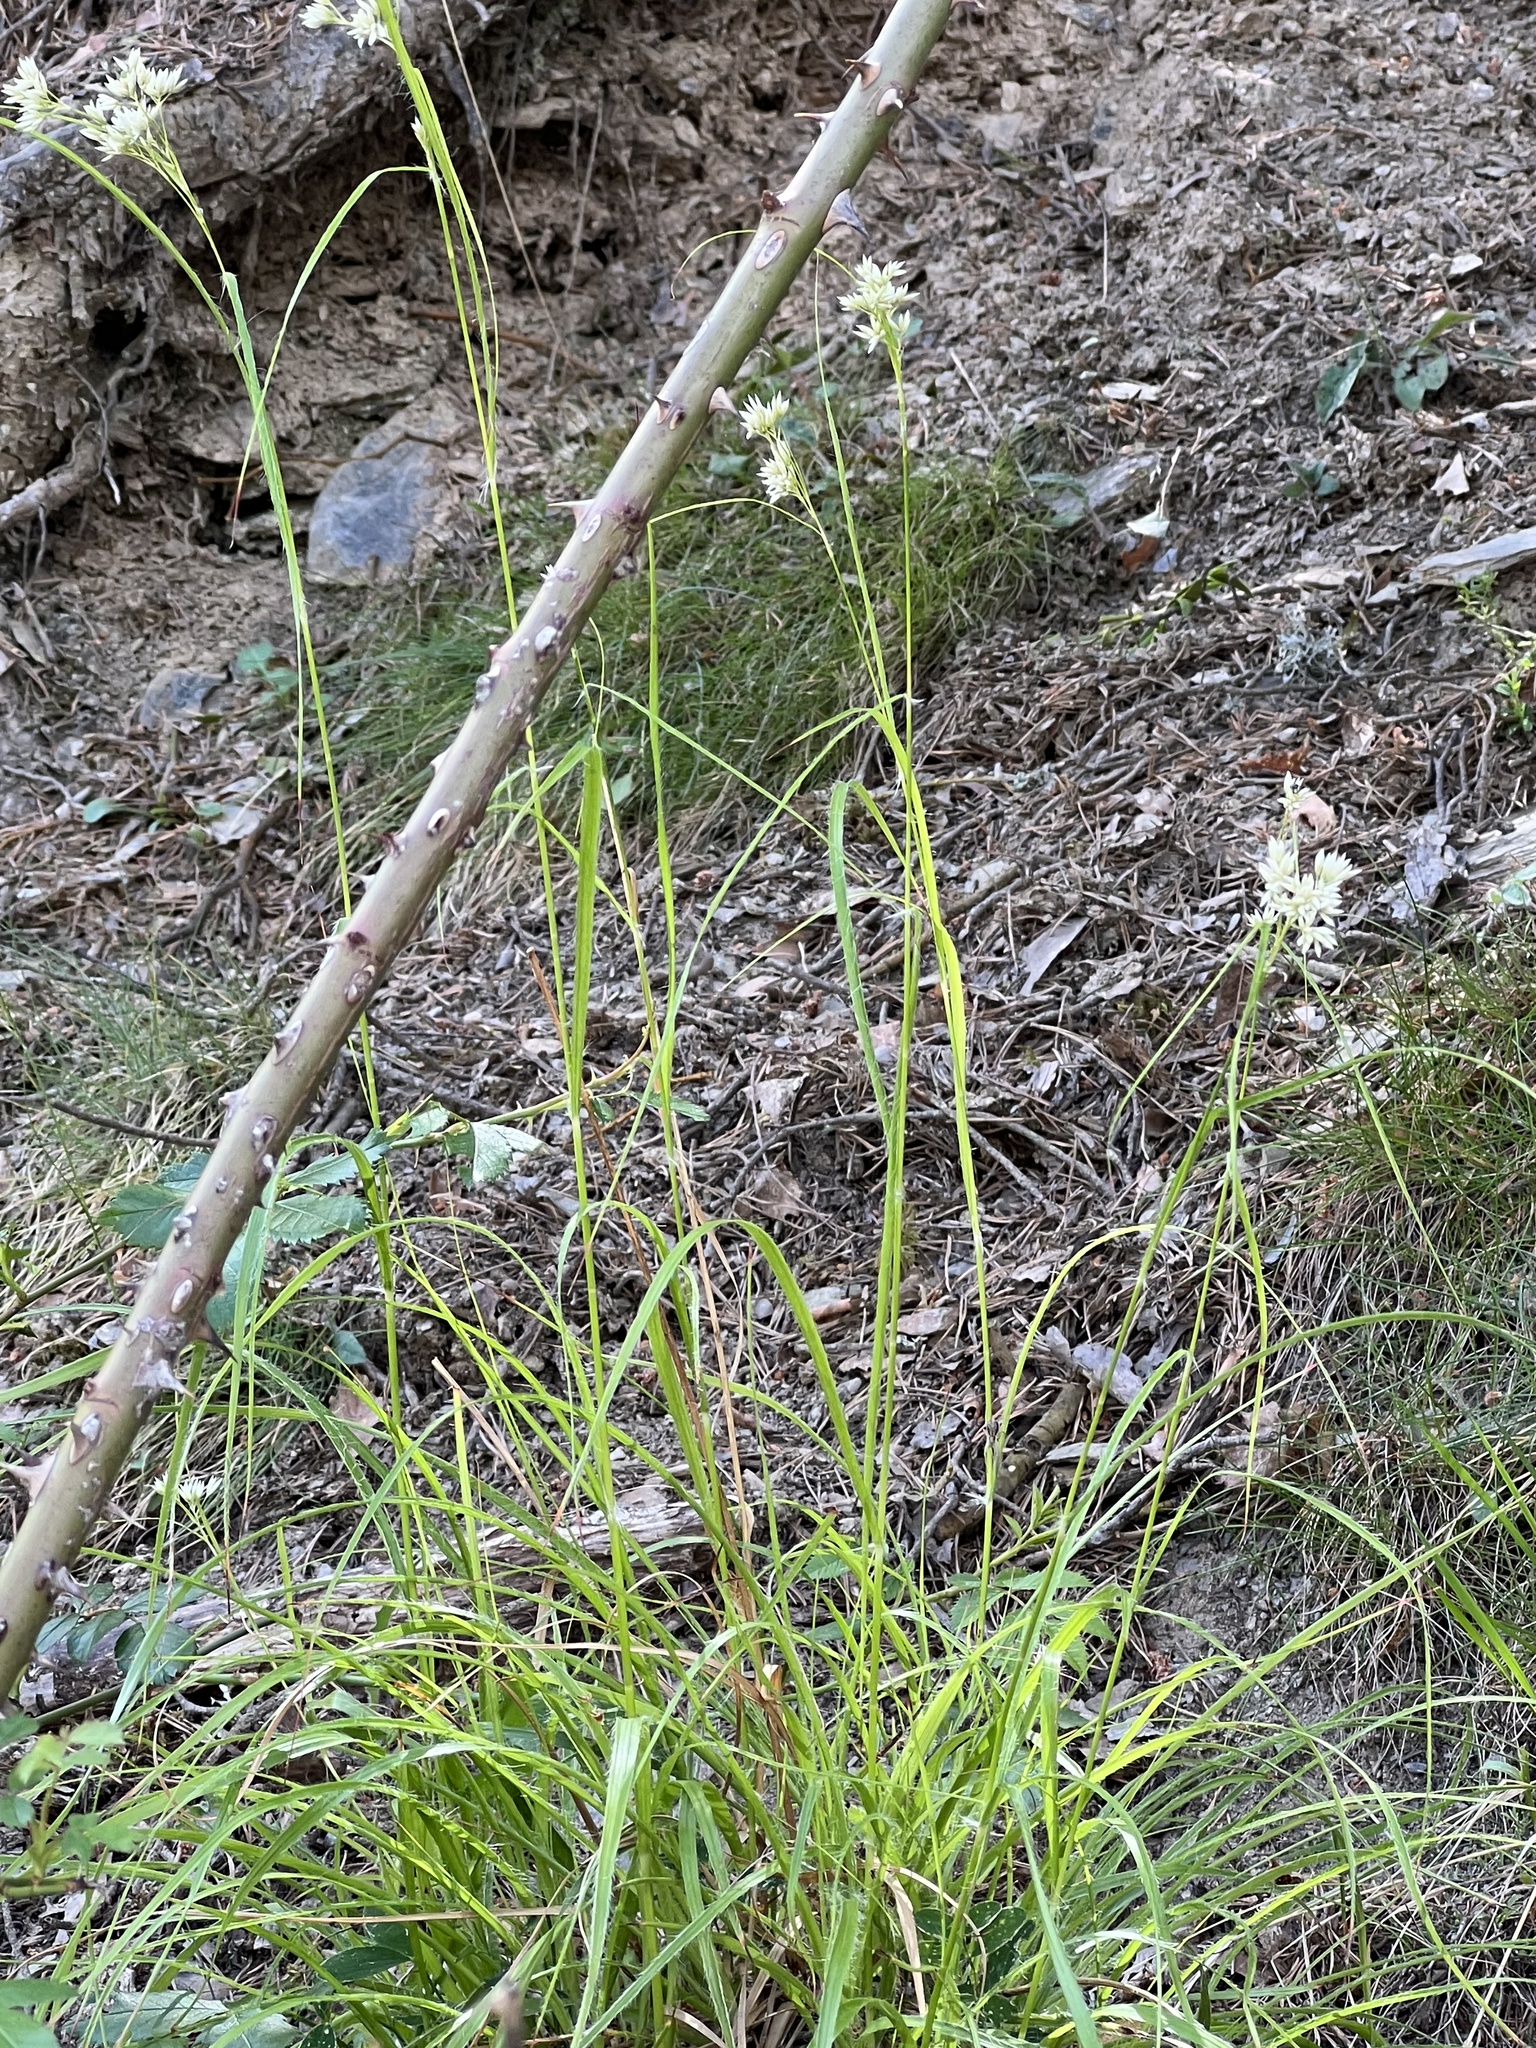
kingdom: Plantae
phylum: Tracheophyta
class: Liliopsida
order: Poales
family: Juncaceae
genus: Luzula
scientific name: Luzula nivea
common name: Snow-white wood-rush
